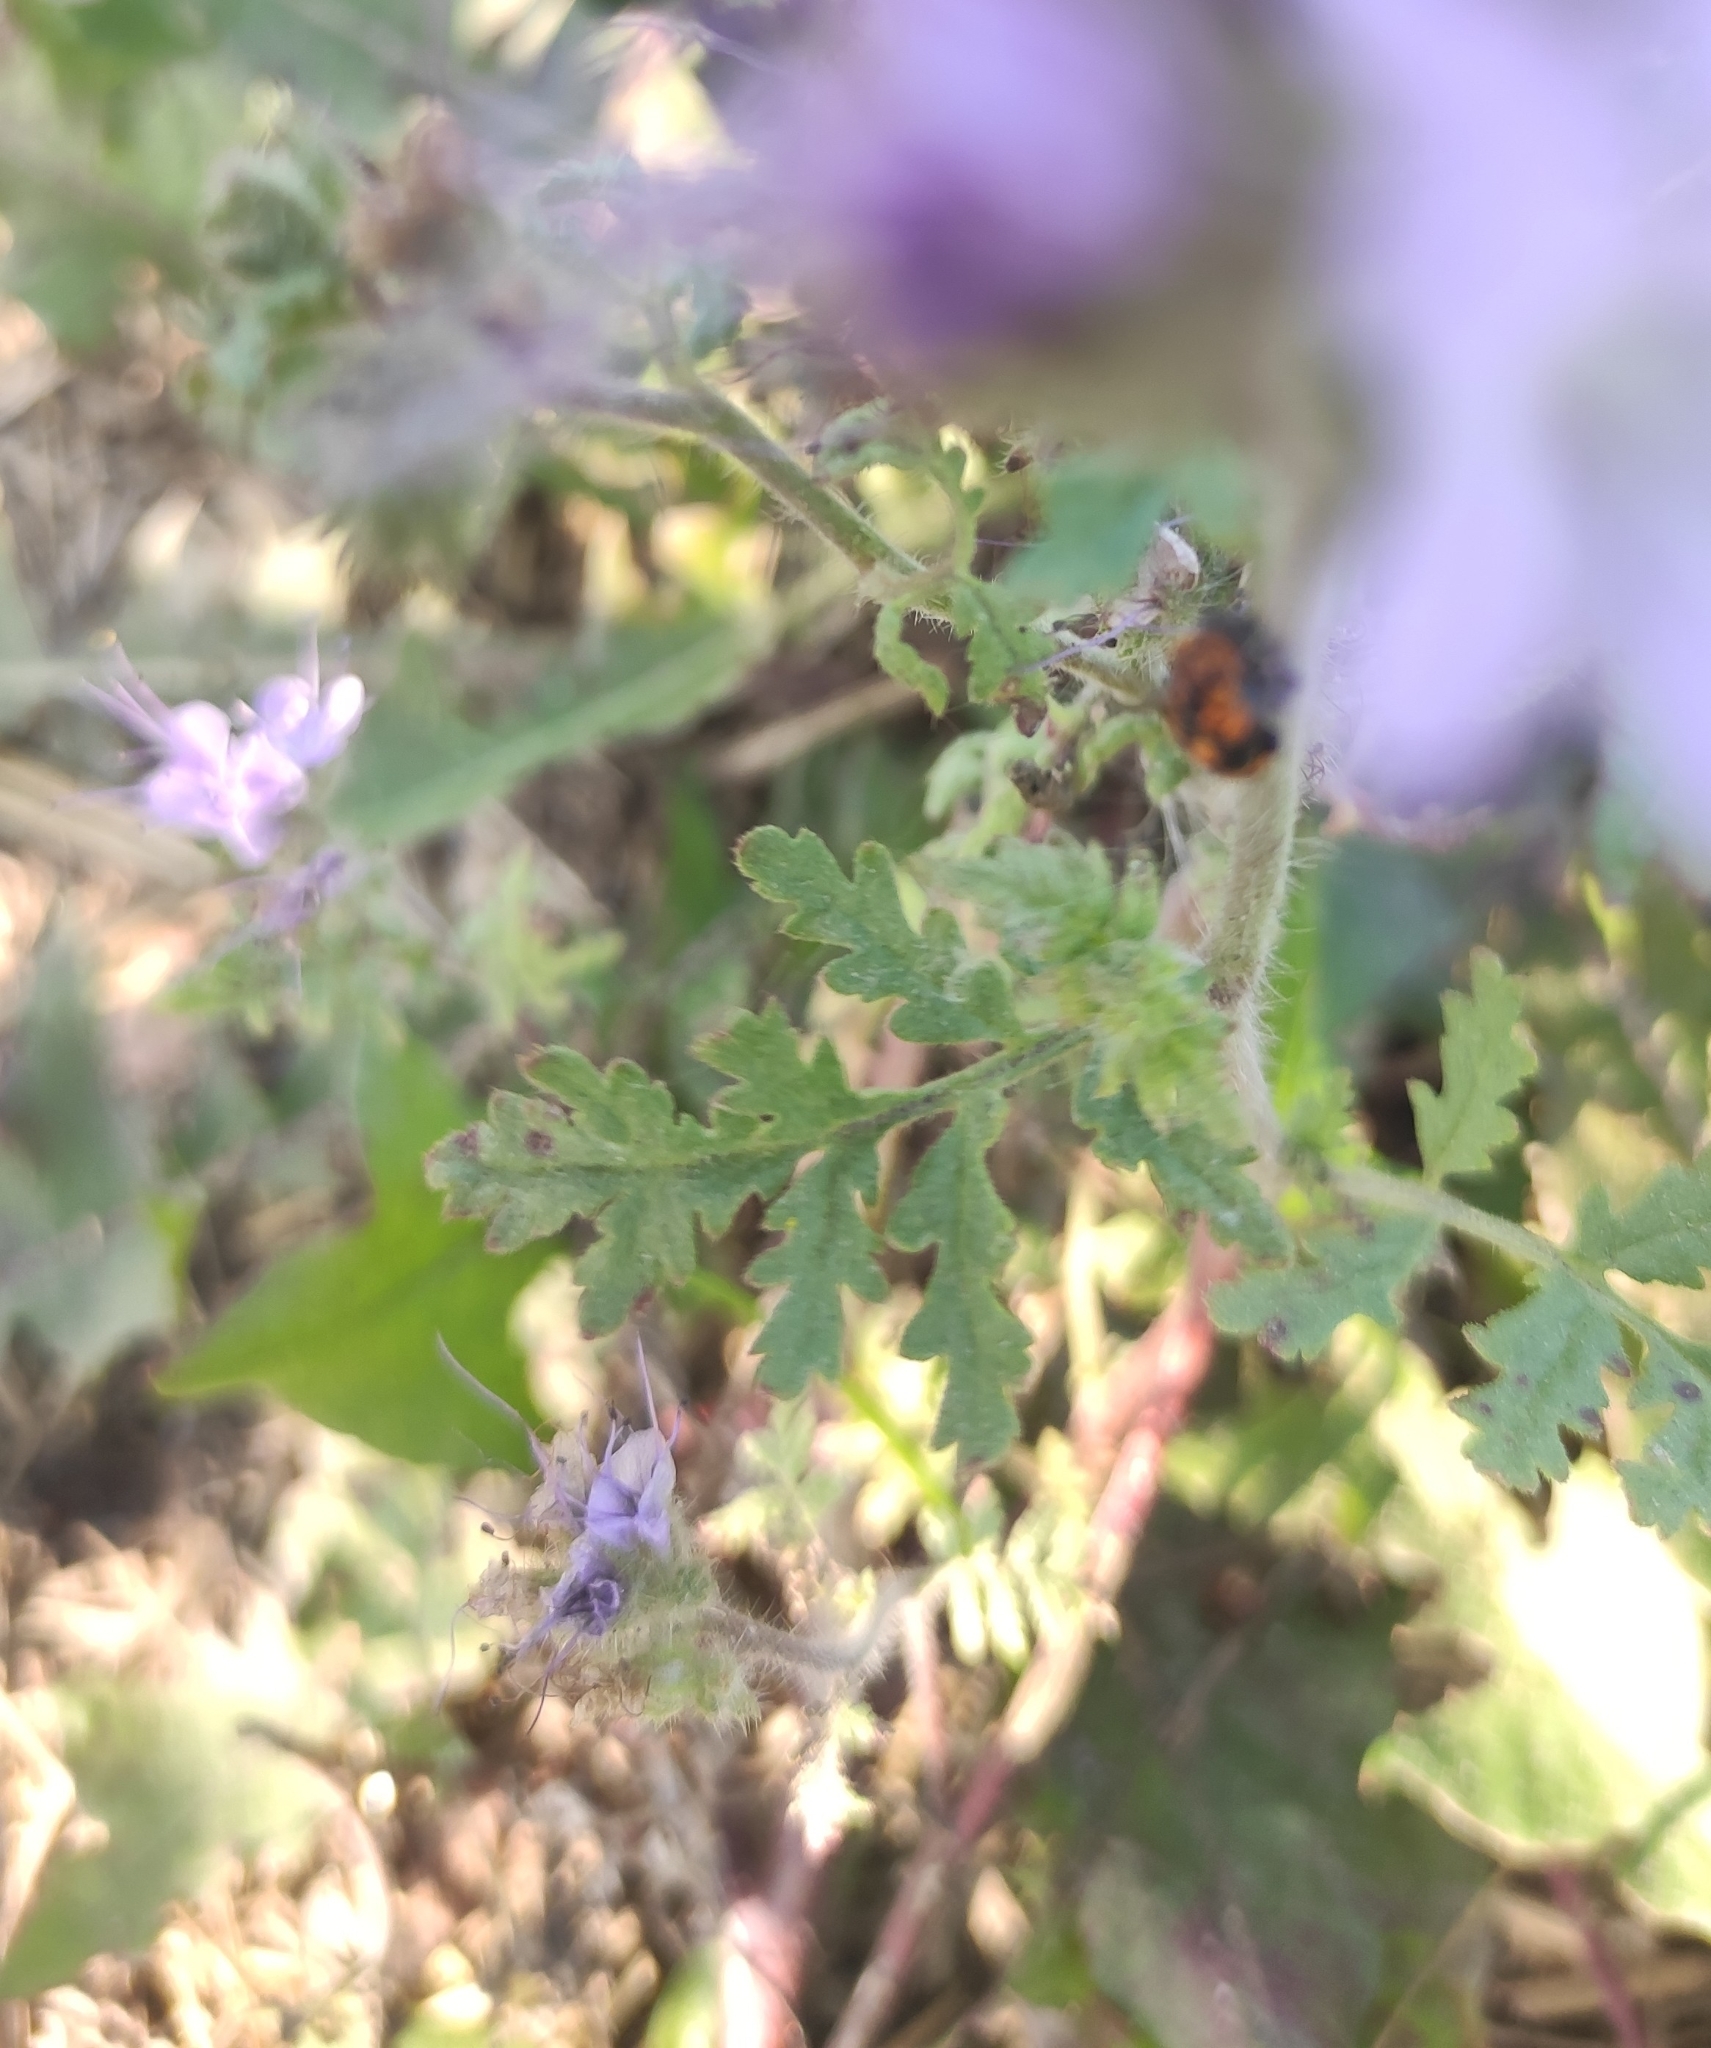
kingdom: Plantae
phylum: Tracheophyta
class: Magnoliopsida
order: Boraginales
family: Hydrophyllaceae
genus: Phacelia
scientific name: Phacelia tanacetifolia
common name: Phacelia
